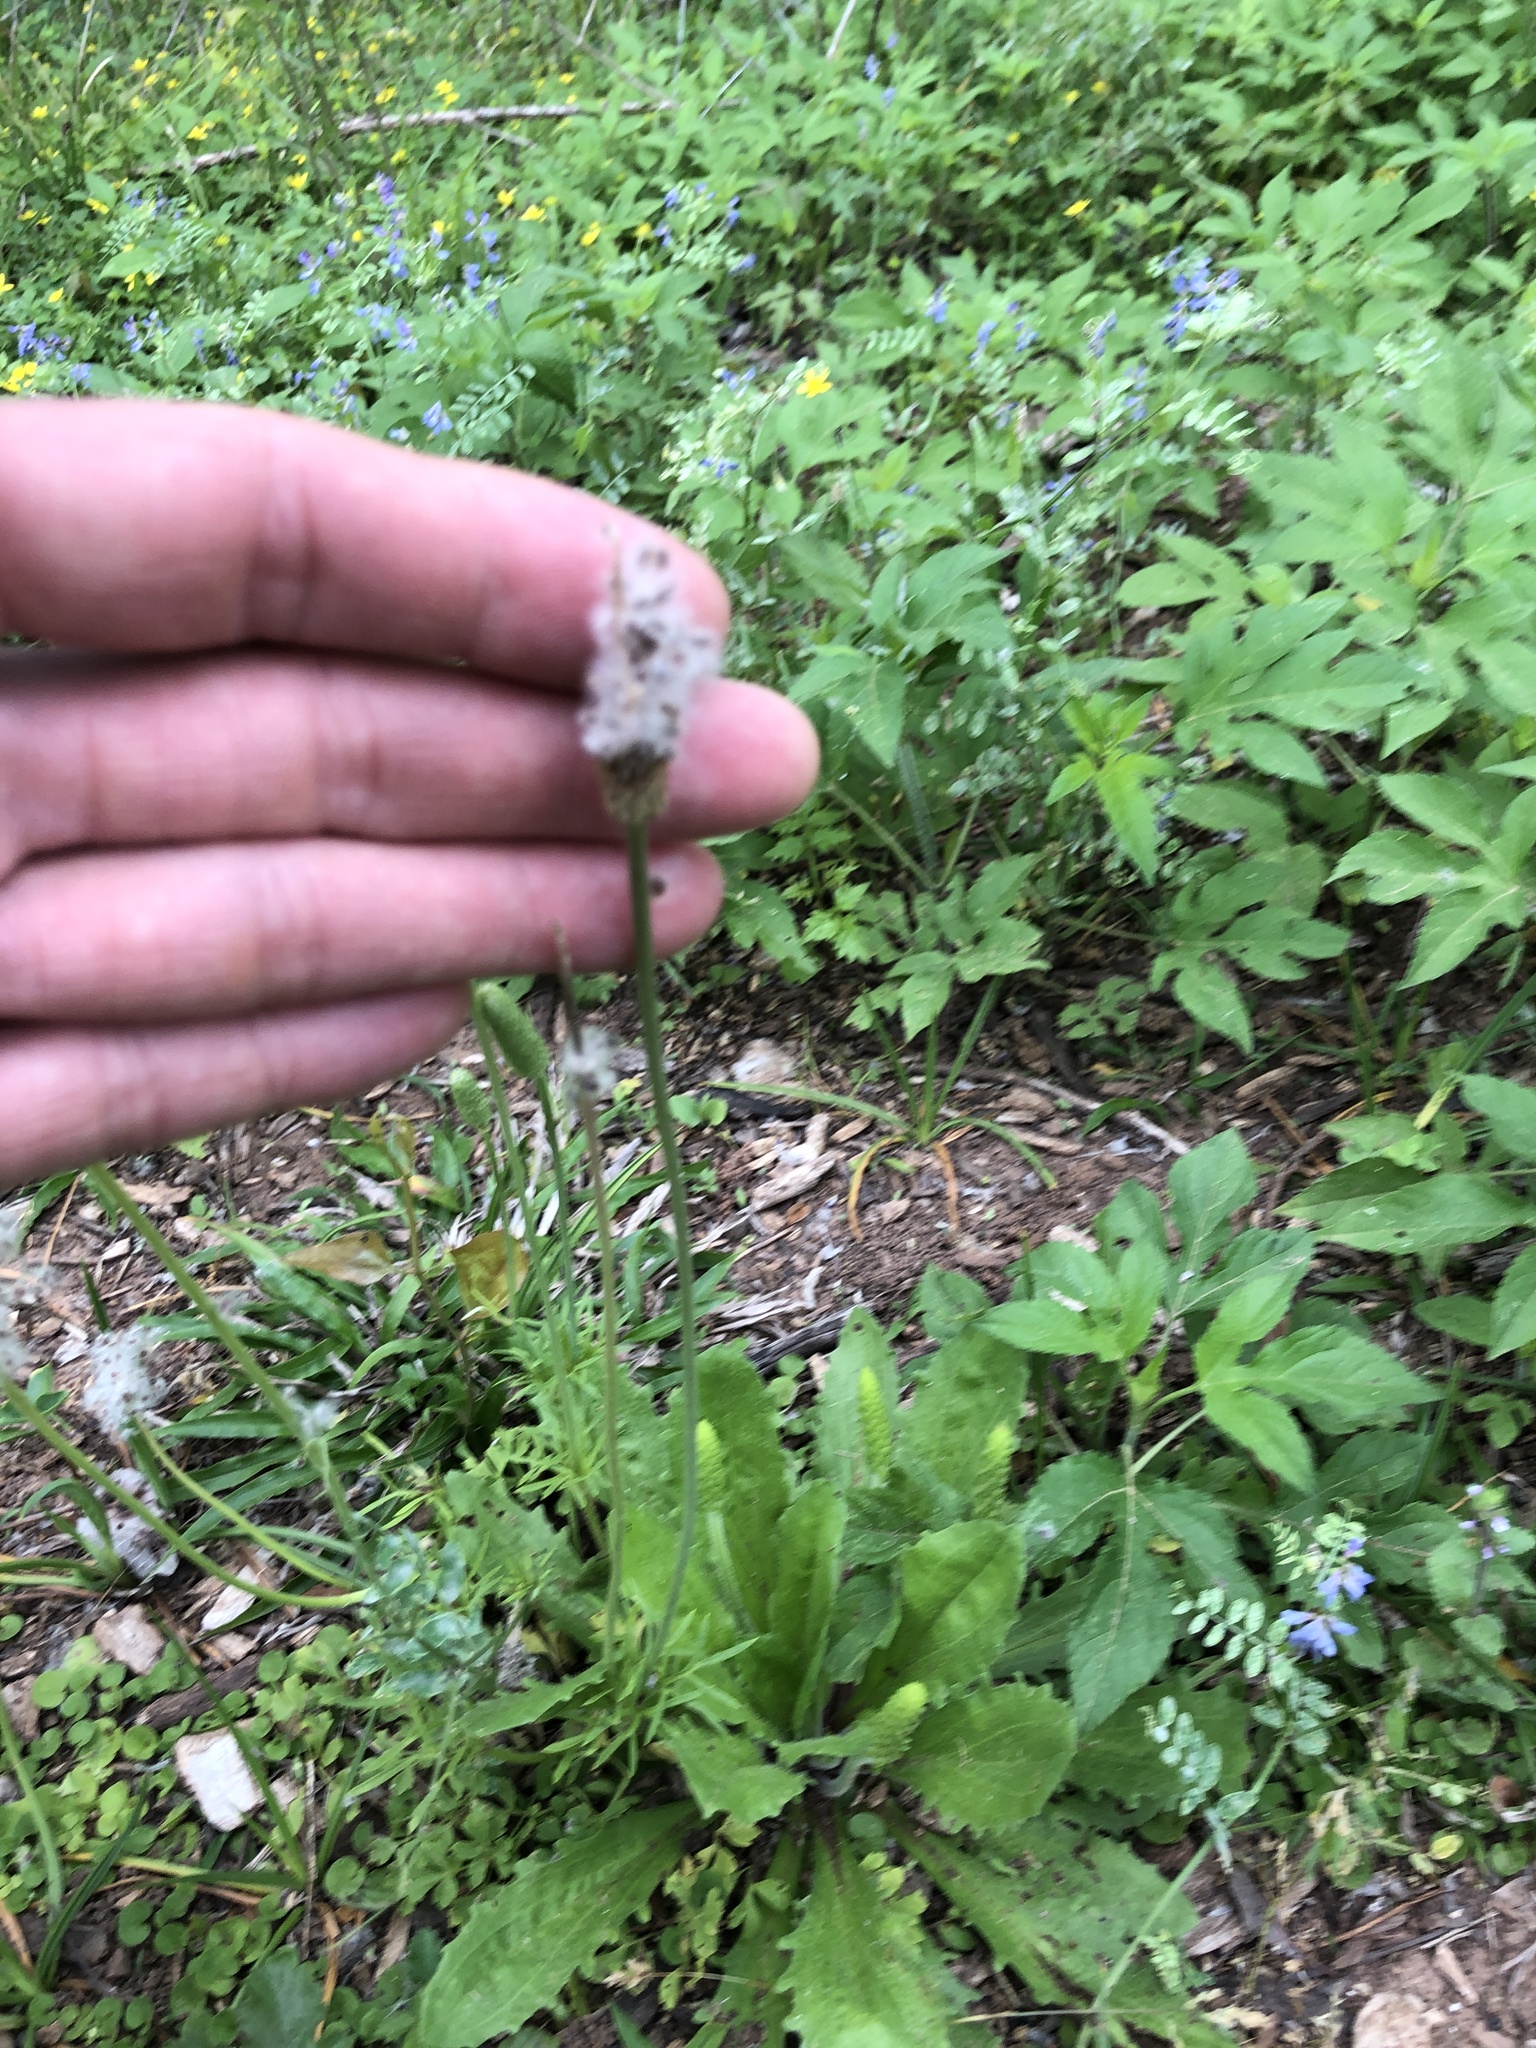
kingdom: Plantae
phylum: Tracheophyta
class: Magnoliopsida
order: Ranunculales
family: Ranunculaceae
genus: Anemone
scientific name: Anemone berlandieri
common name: Ten-petal anemone
